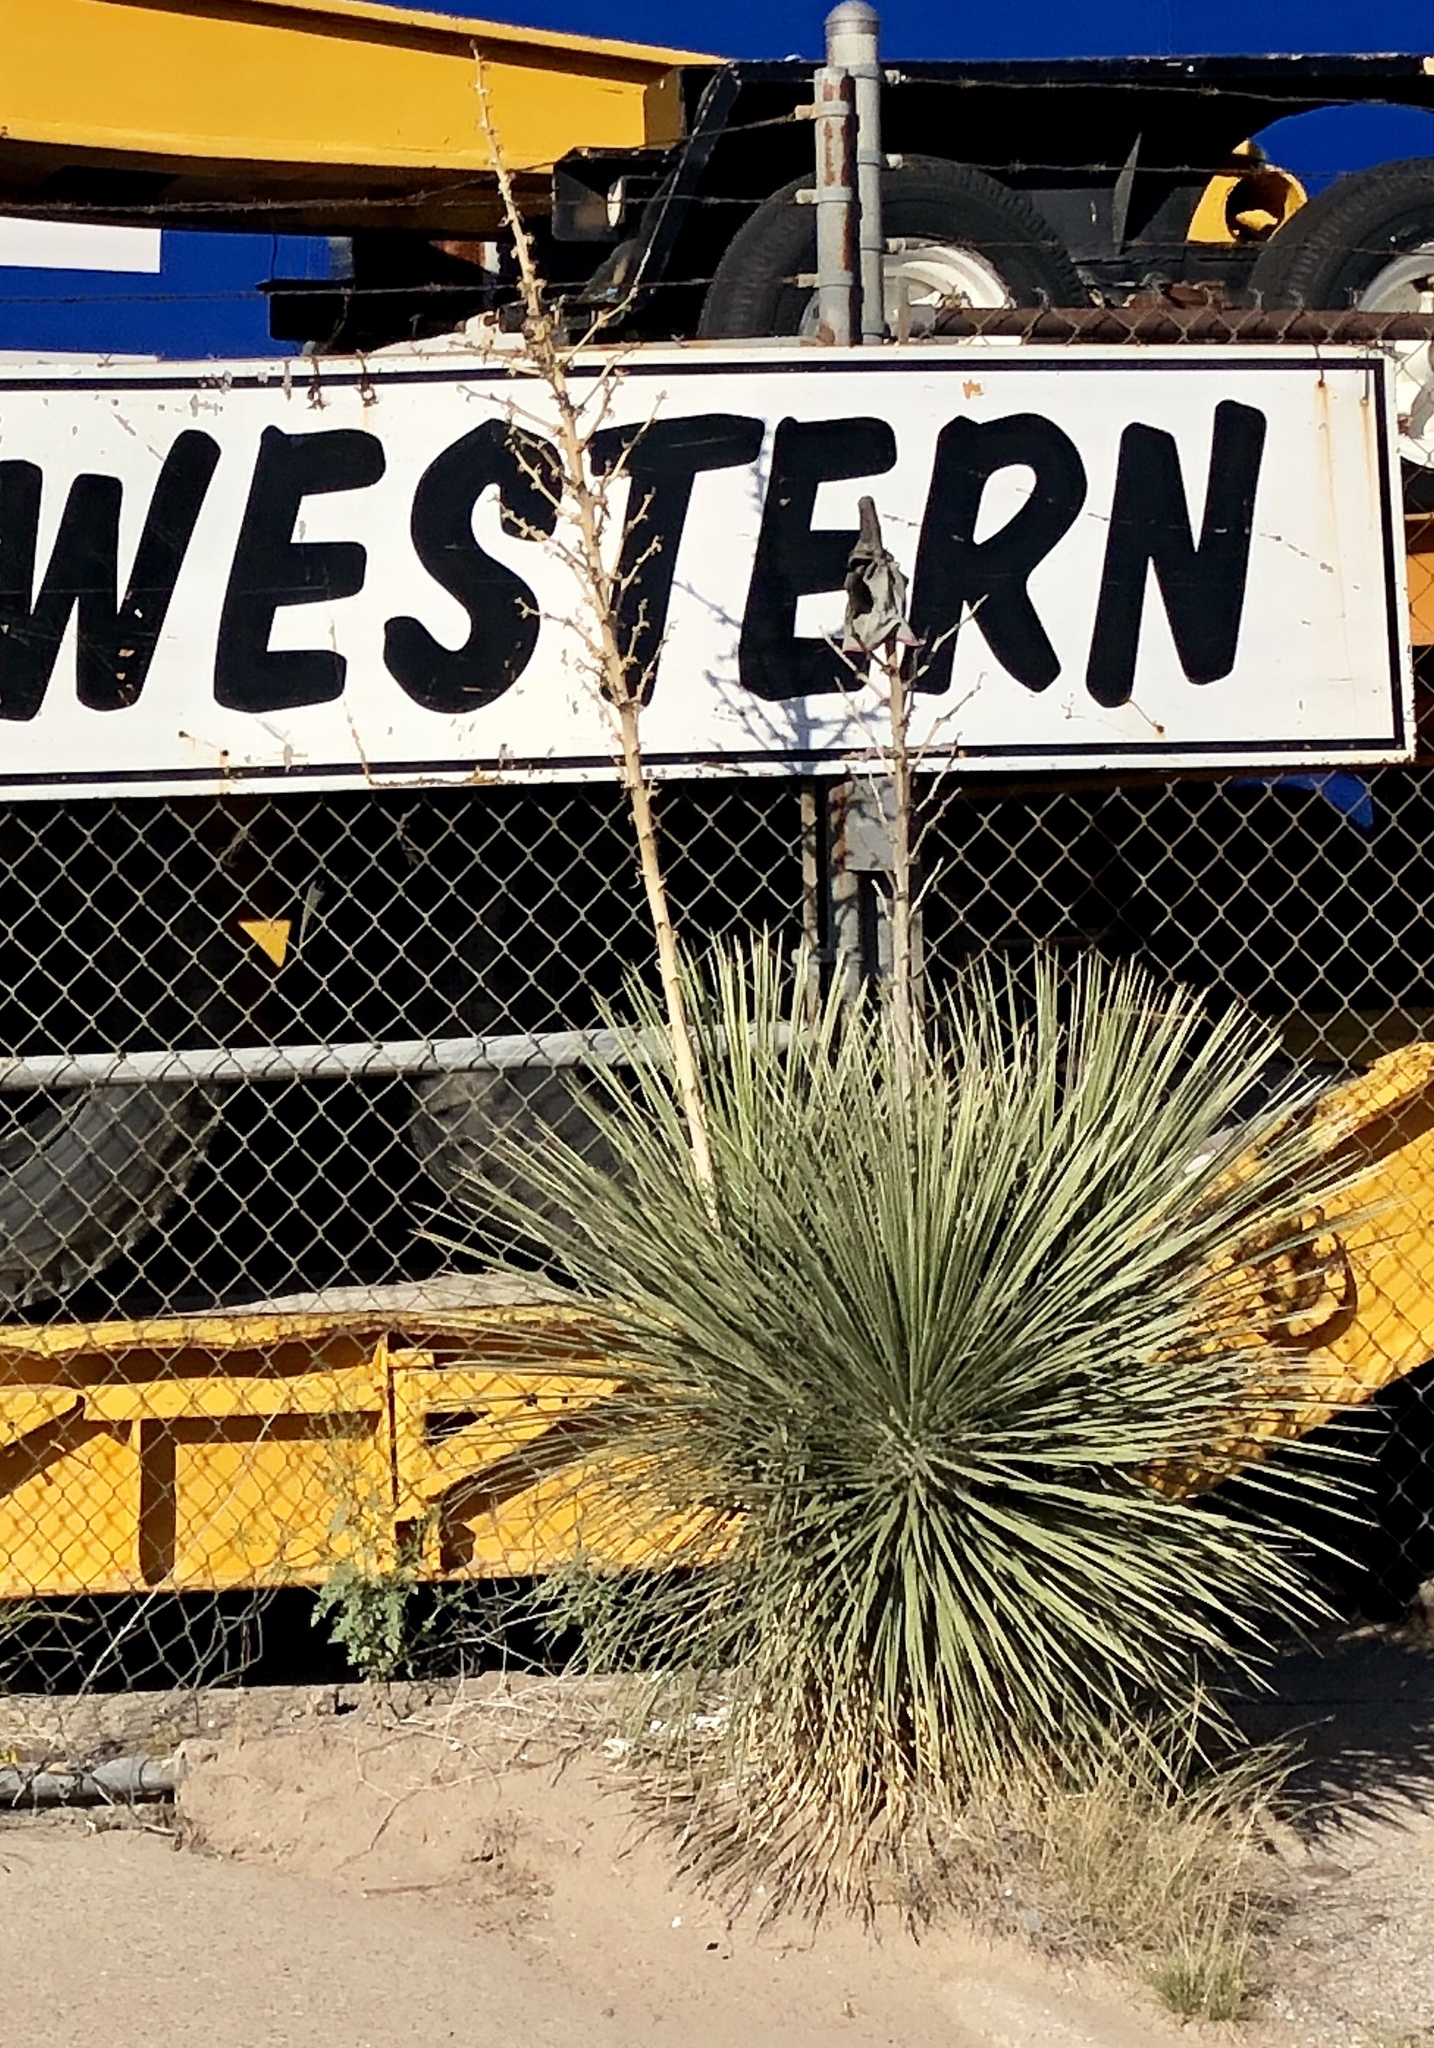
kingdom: Plantae
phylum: Tracheophyta
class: Liliopsida
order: Asparagales
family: Asparagaceae
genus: Yucca
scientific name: Yucca elata
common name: Palmella
